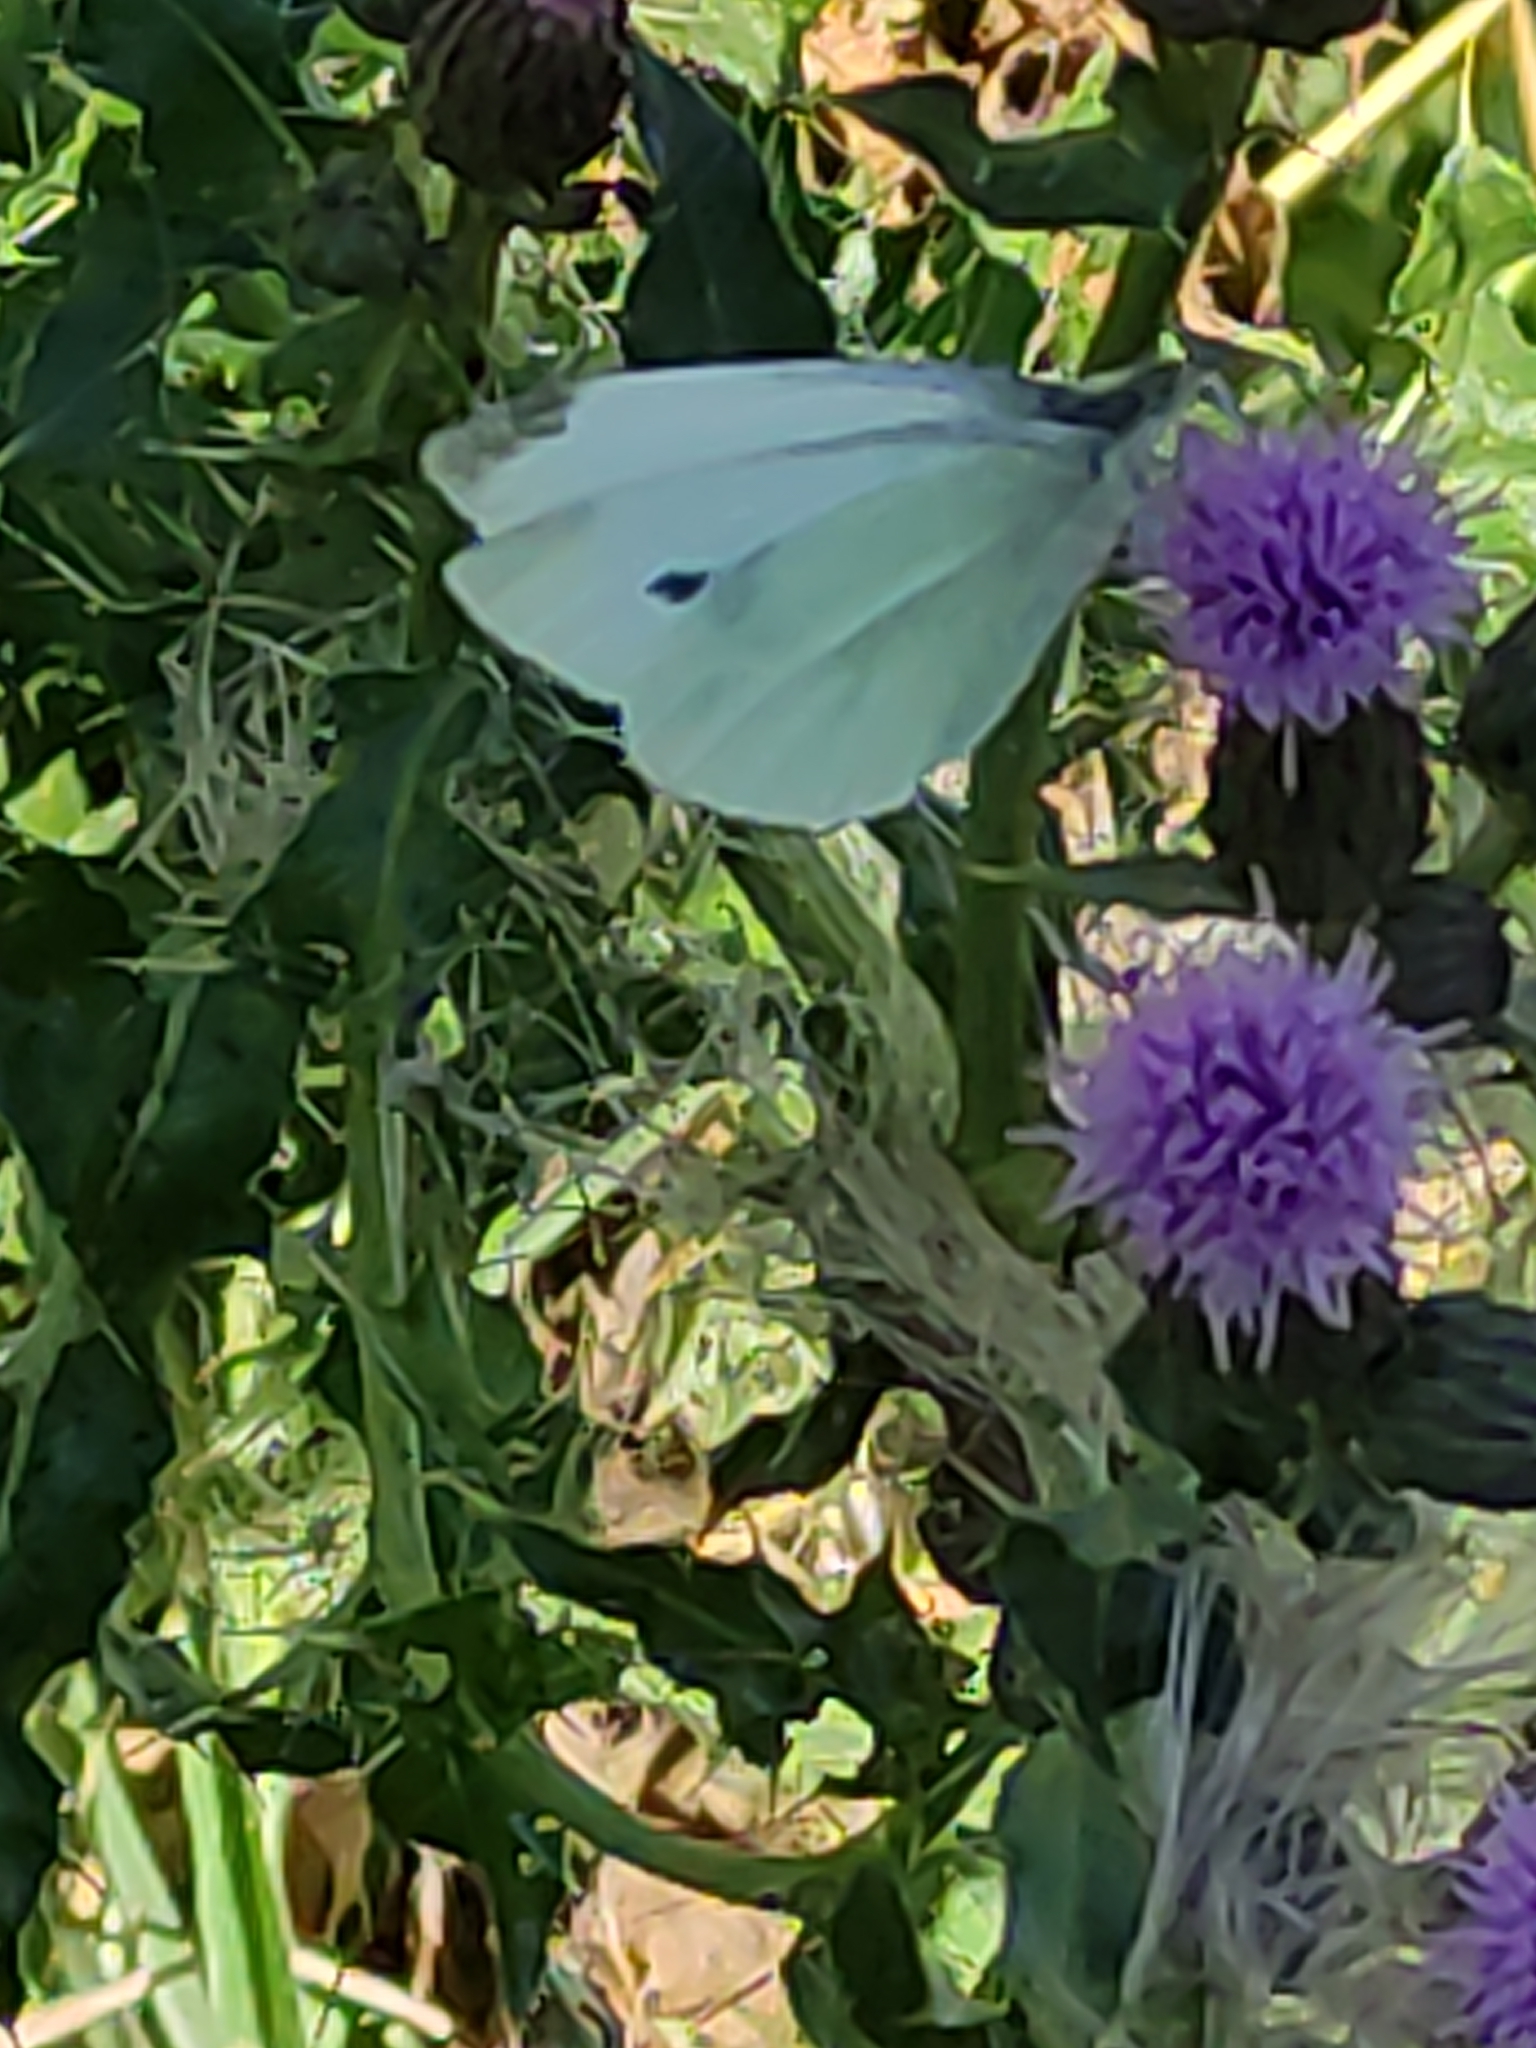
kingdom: Animalia
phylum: Arthropoda
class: Insecta
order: Lepidoptera
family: Pieridae
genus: Pieris
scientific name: Pieris rapae
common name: Small white
